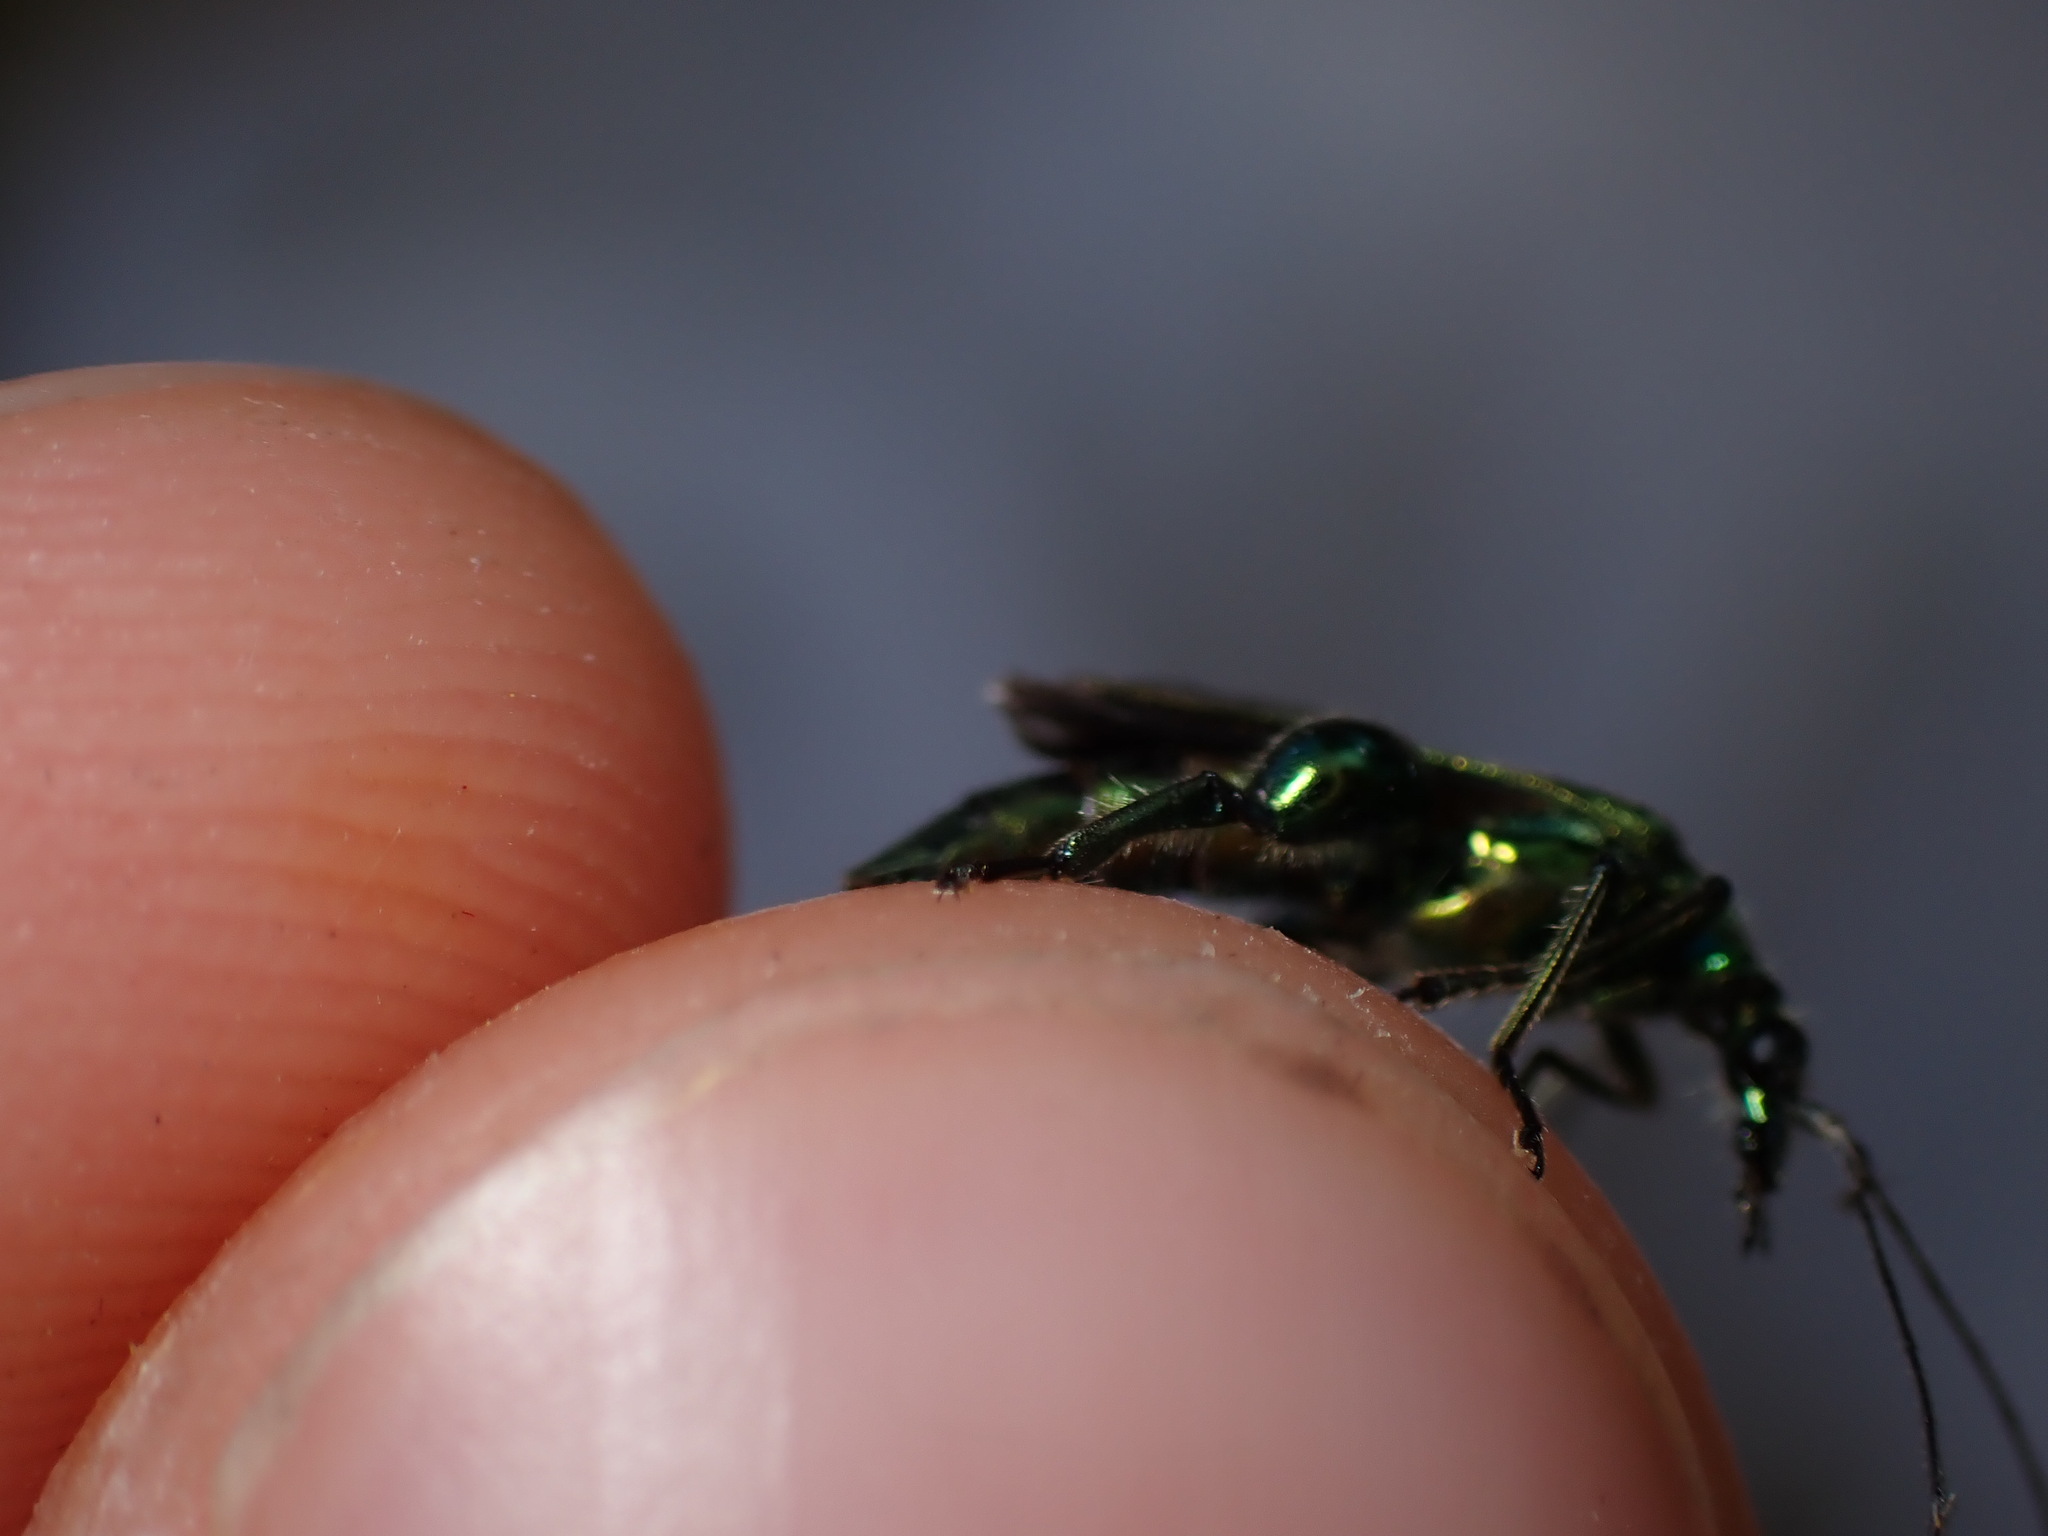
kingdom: Animalia
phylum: Arthropoda
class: Insecta
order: Coleoptera
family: Oedemeridae
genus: Oedemera
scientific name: Oedemera nobilis
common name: Swollen-thighed beetle
